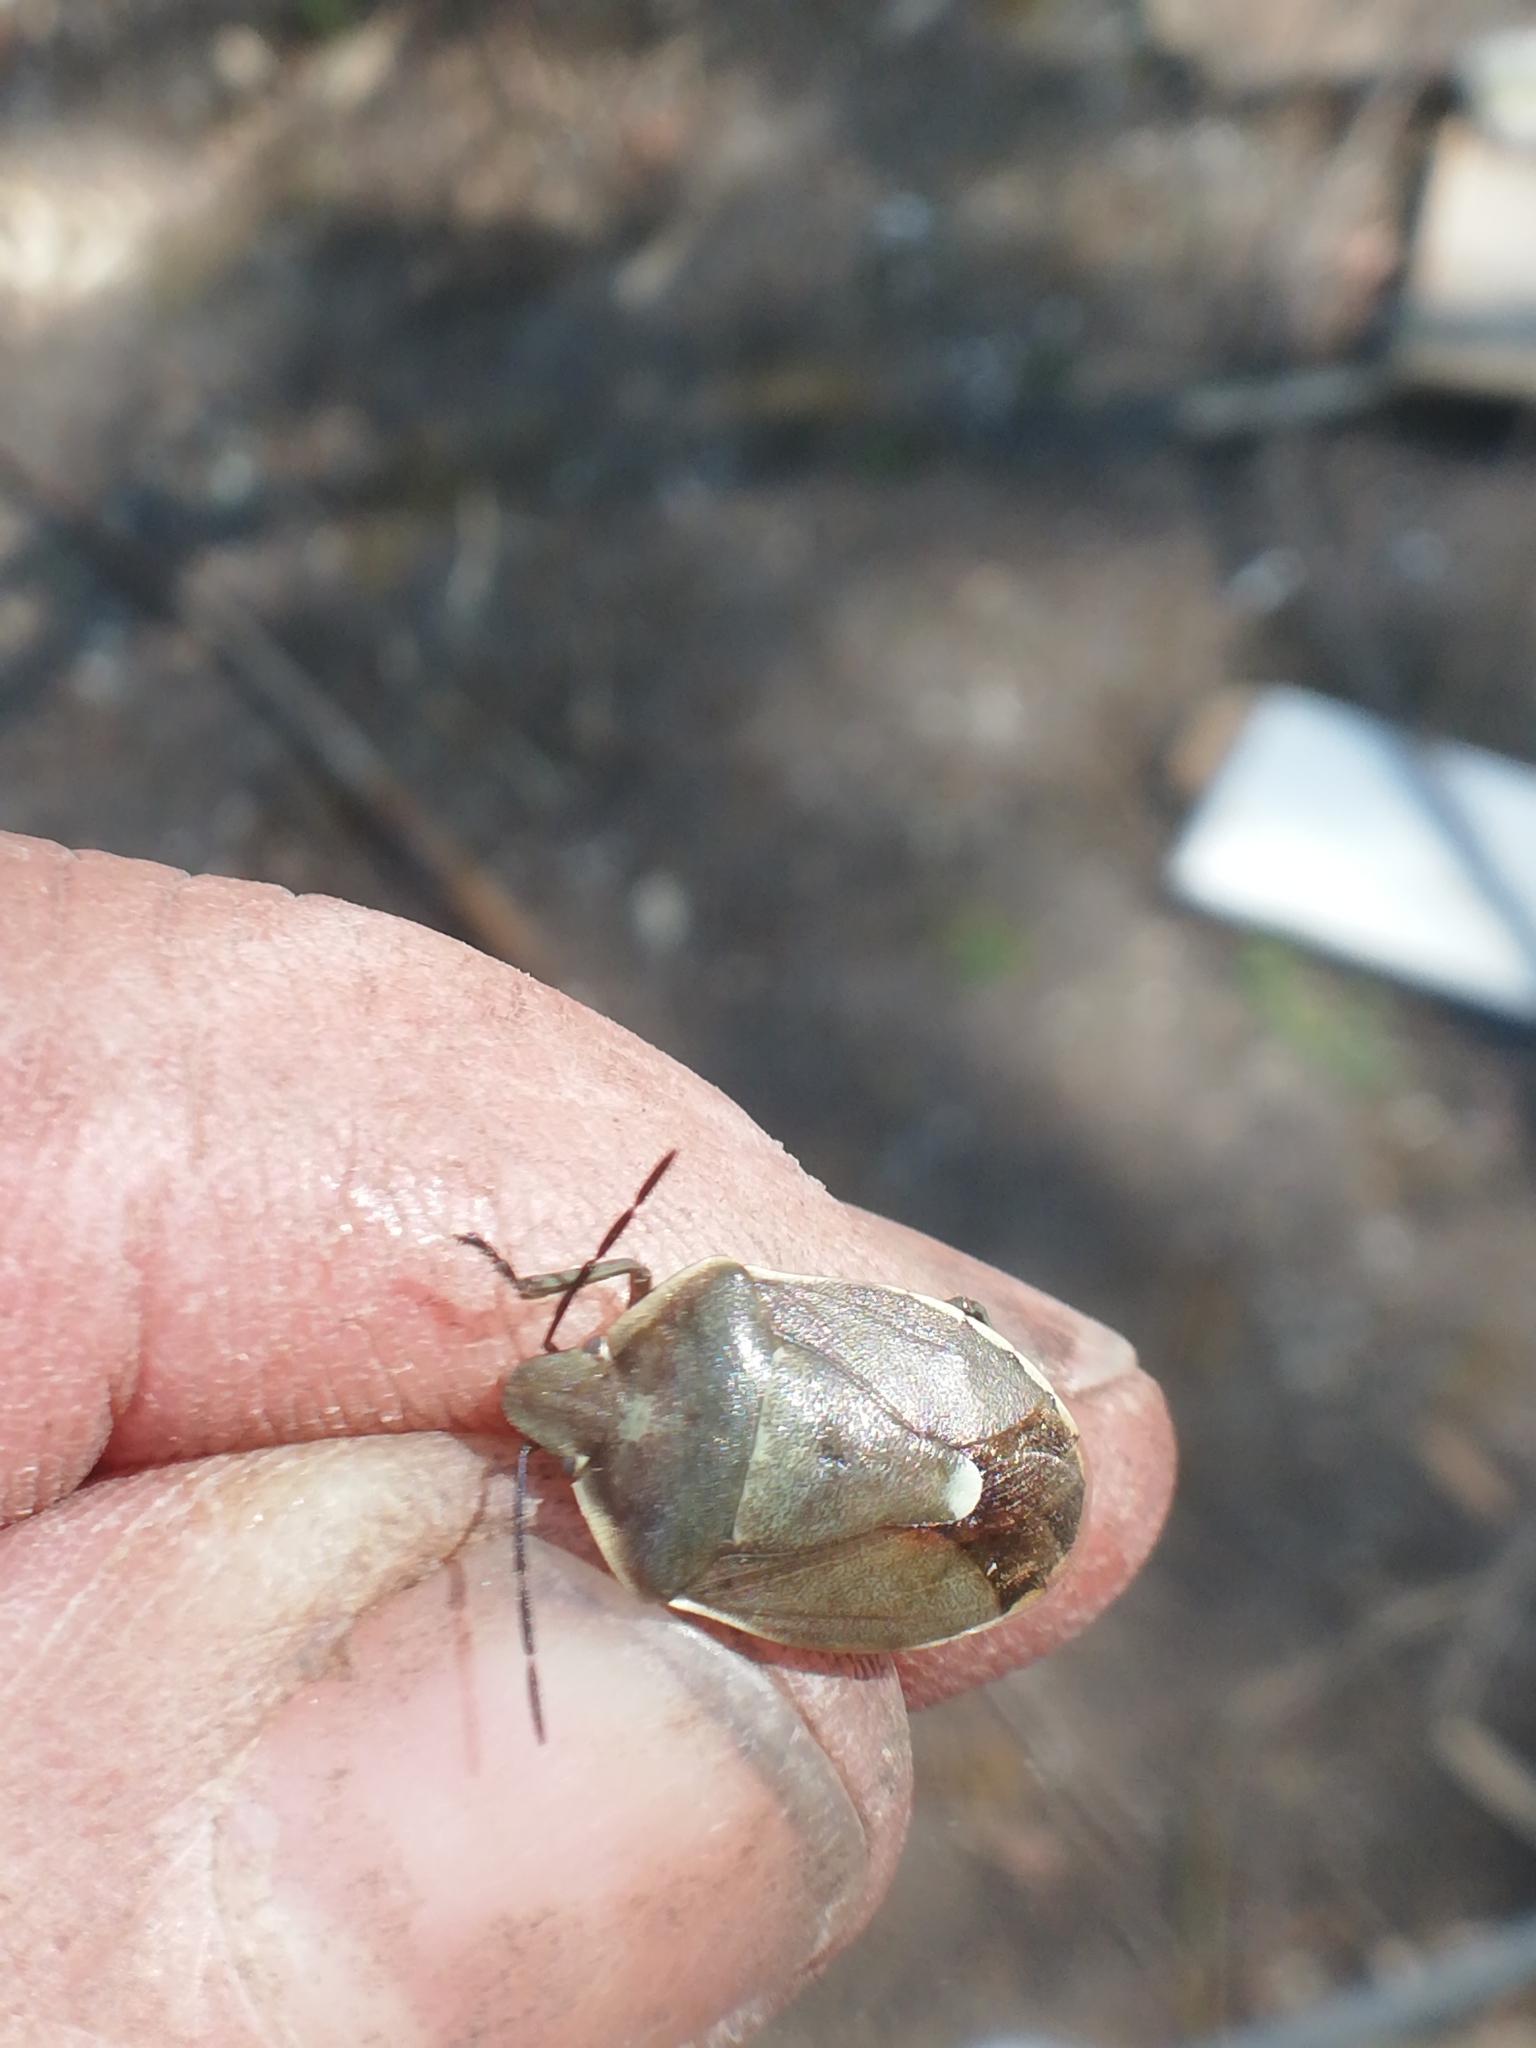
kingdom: Animalia
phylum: Arthropoda
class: Insecta
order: Hemiptera
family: Pentatomidae
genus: Chlorochroa
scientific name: Chlorochroa pinicola
